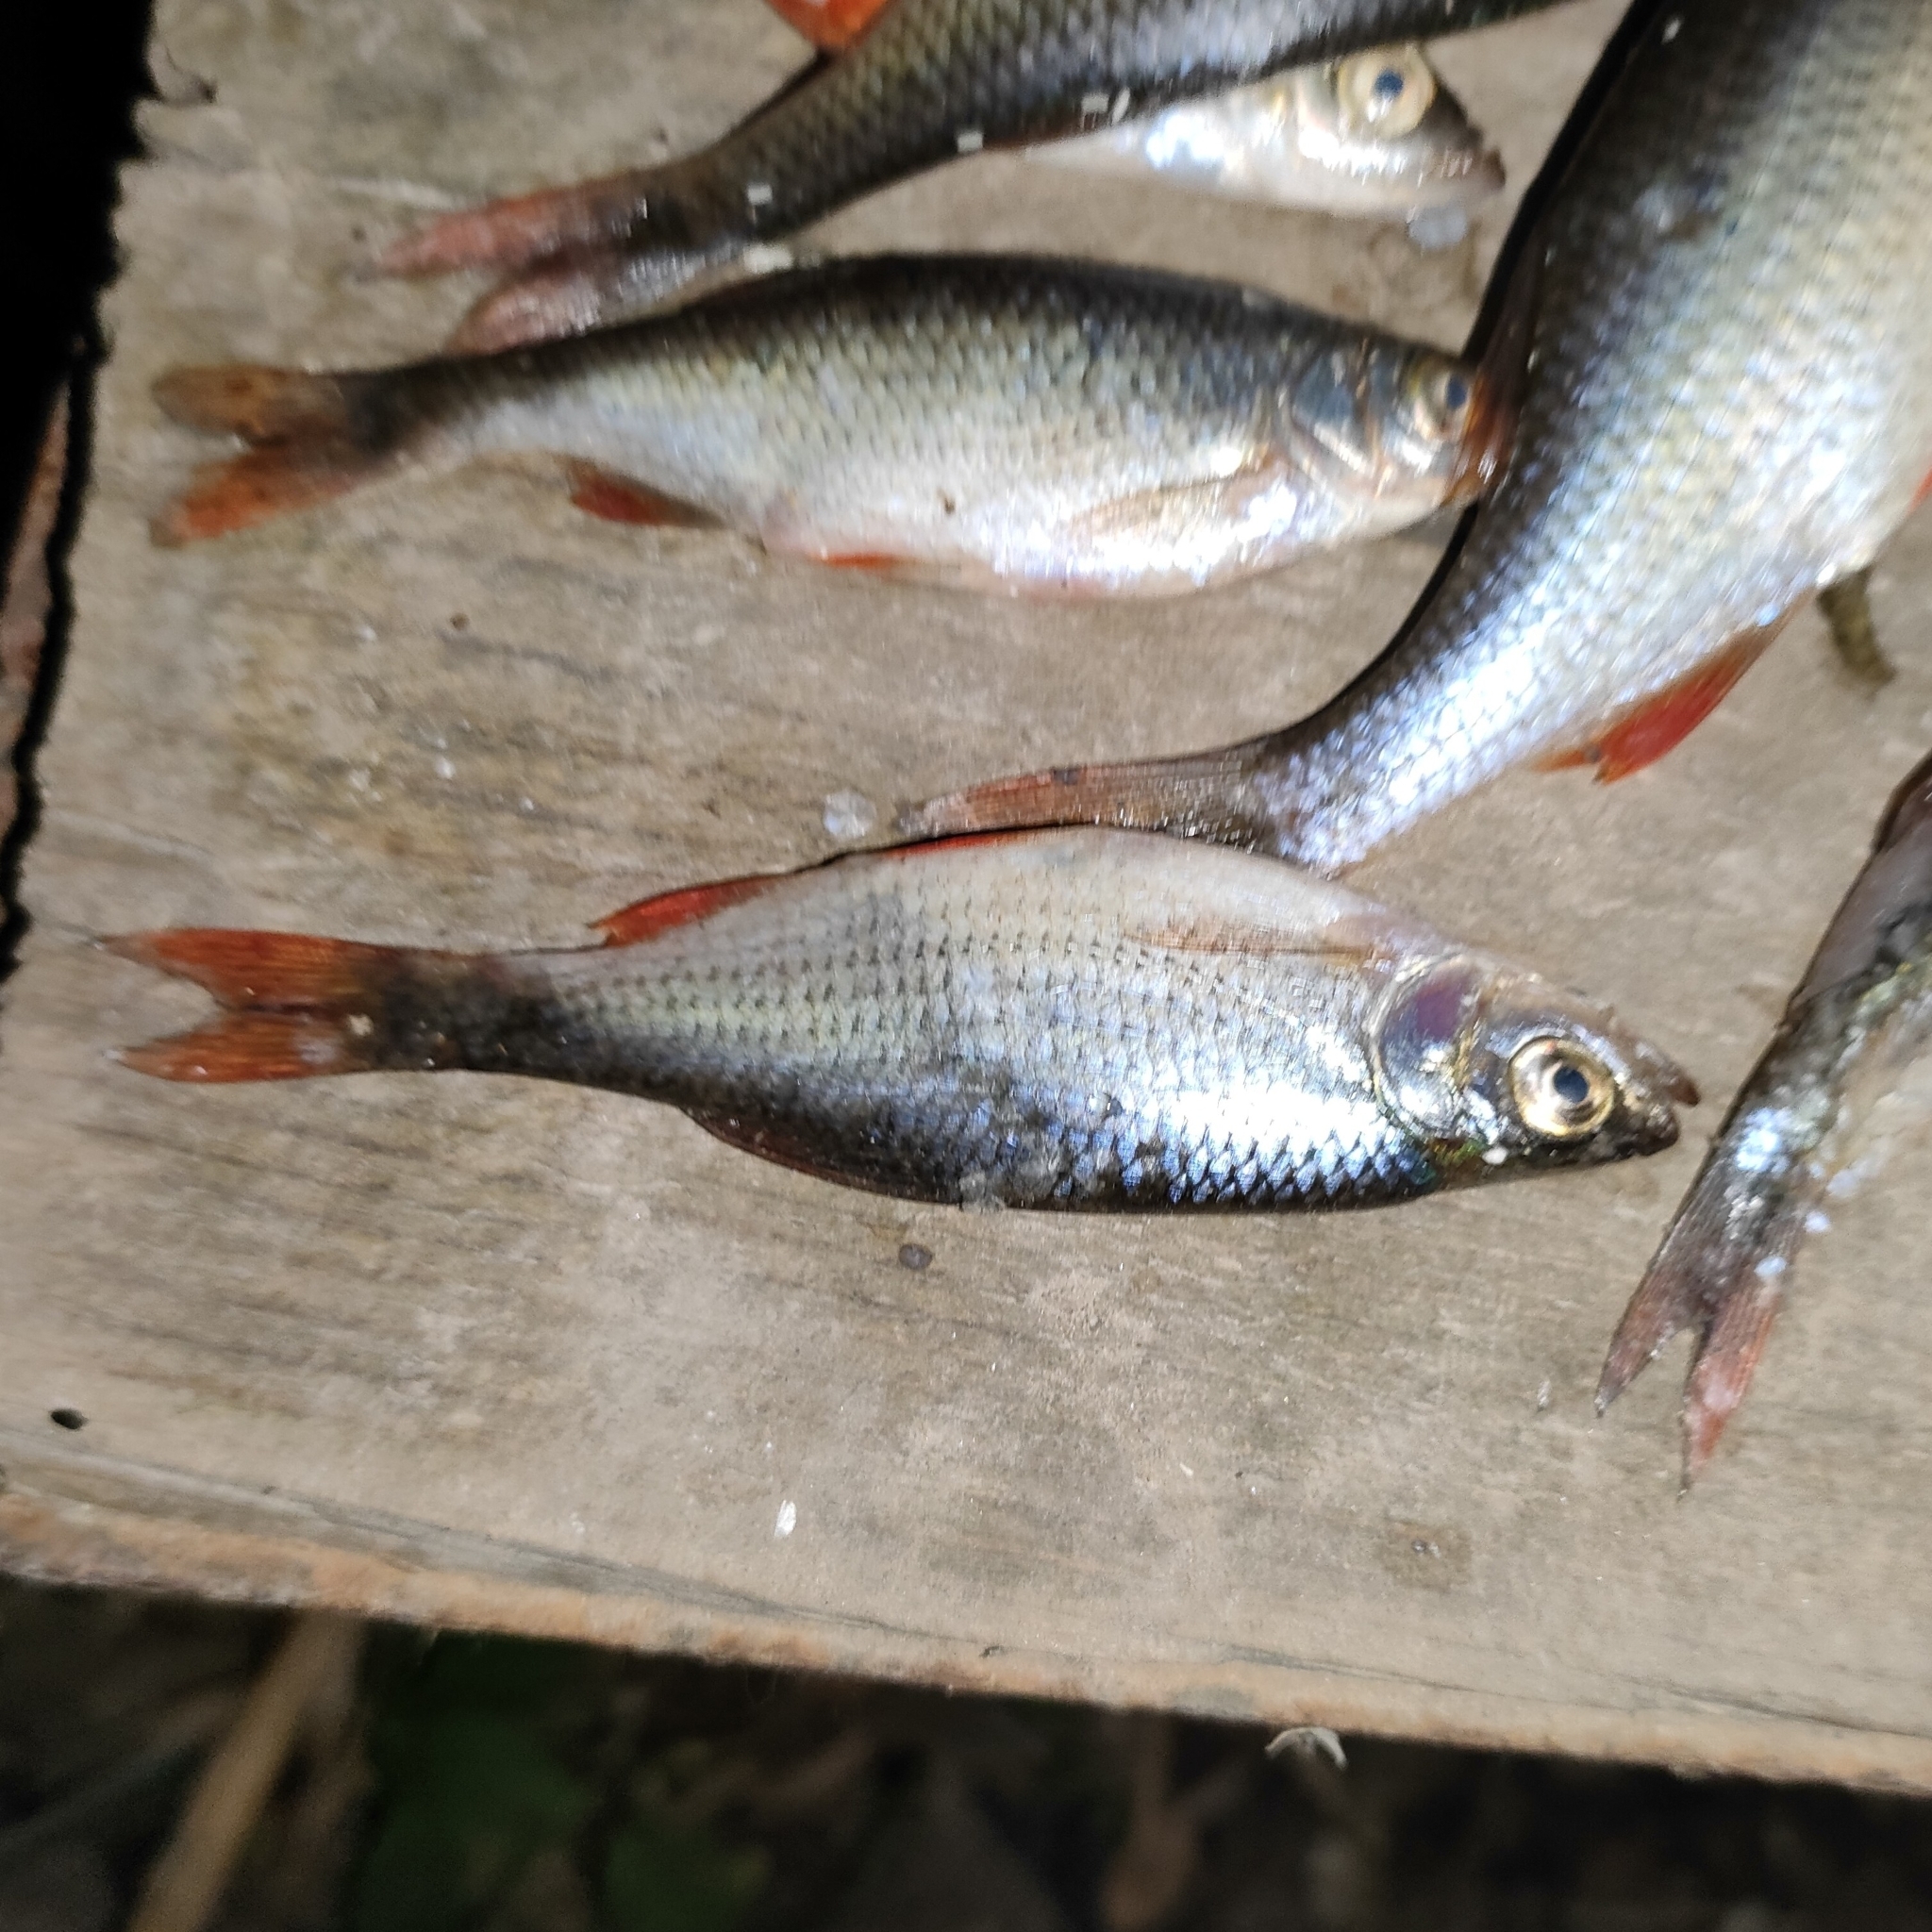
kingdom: Animalia
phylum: Chordata
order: Cypriniformes
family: Cyprinidae
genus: Scardinius
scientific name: Scardinius erythrophthalmus
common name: Rudd
